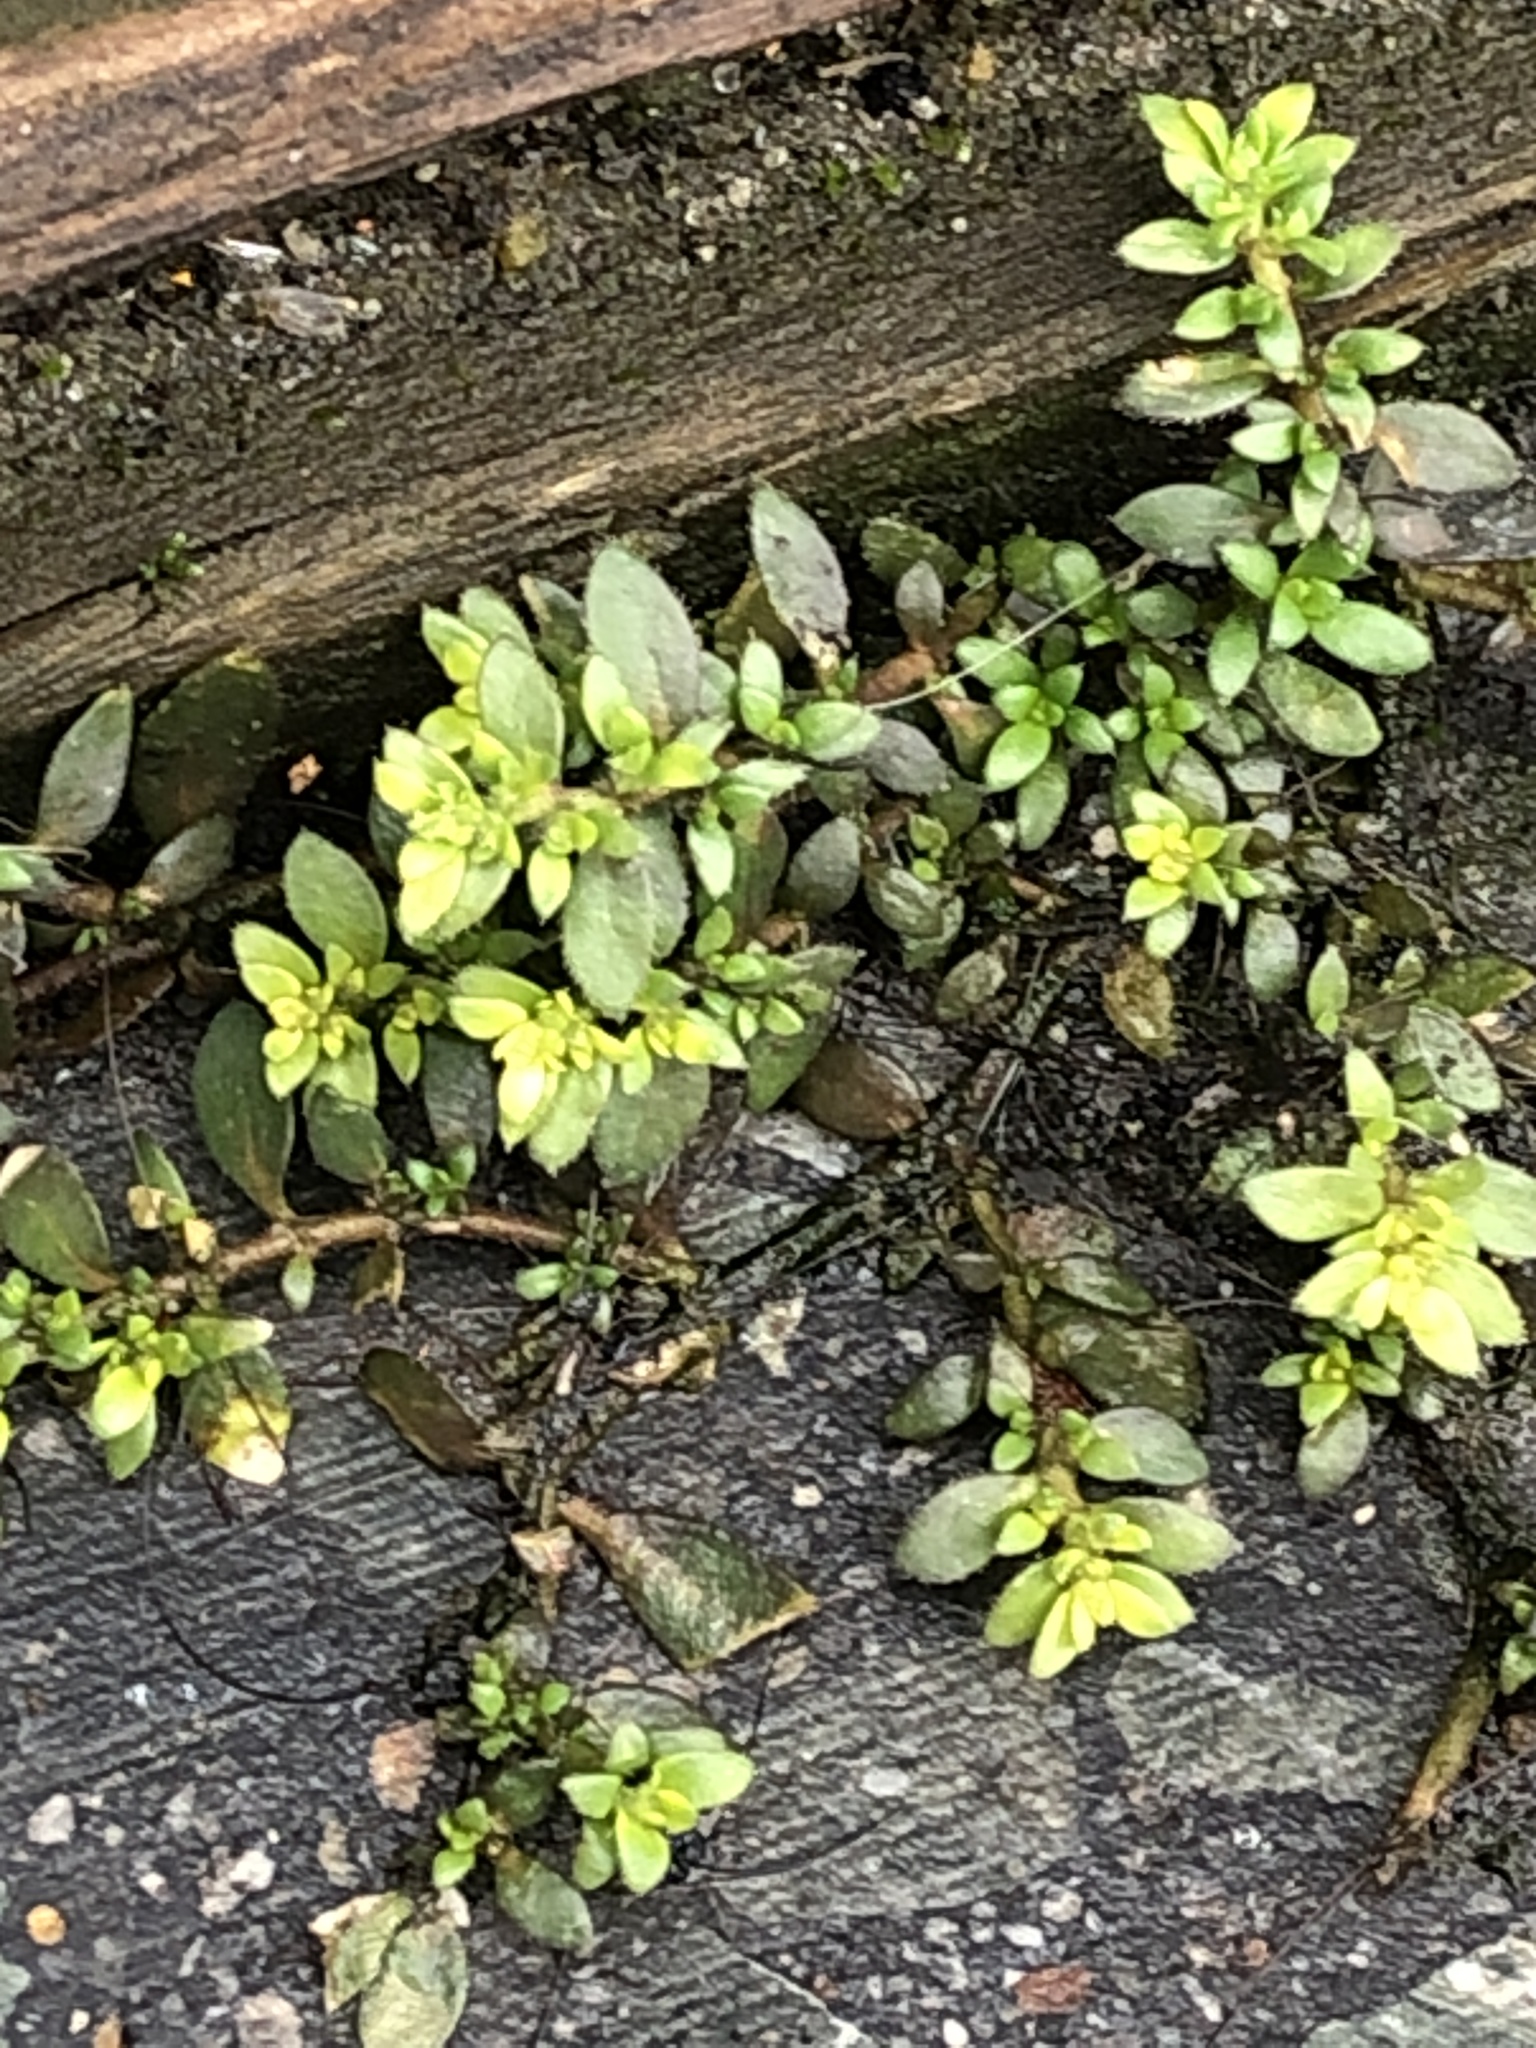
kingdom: Plantae
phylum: Tracheophyta
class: Magnoliopsida
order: Caryophyllales
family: Caryophyllaceae
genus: Herniaria
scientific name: Herniaria hirsuta
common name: Hairy rupturewort
